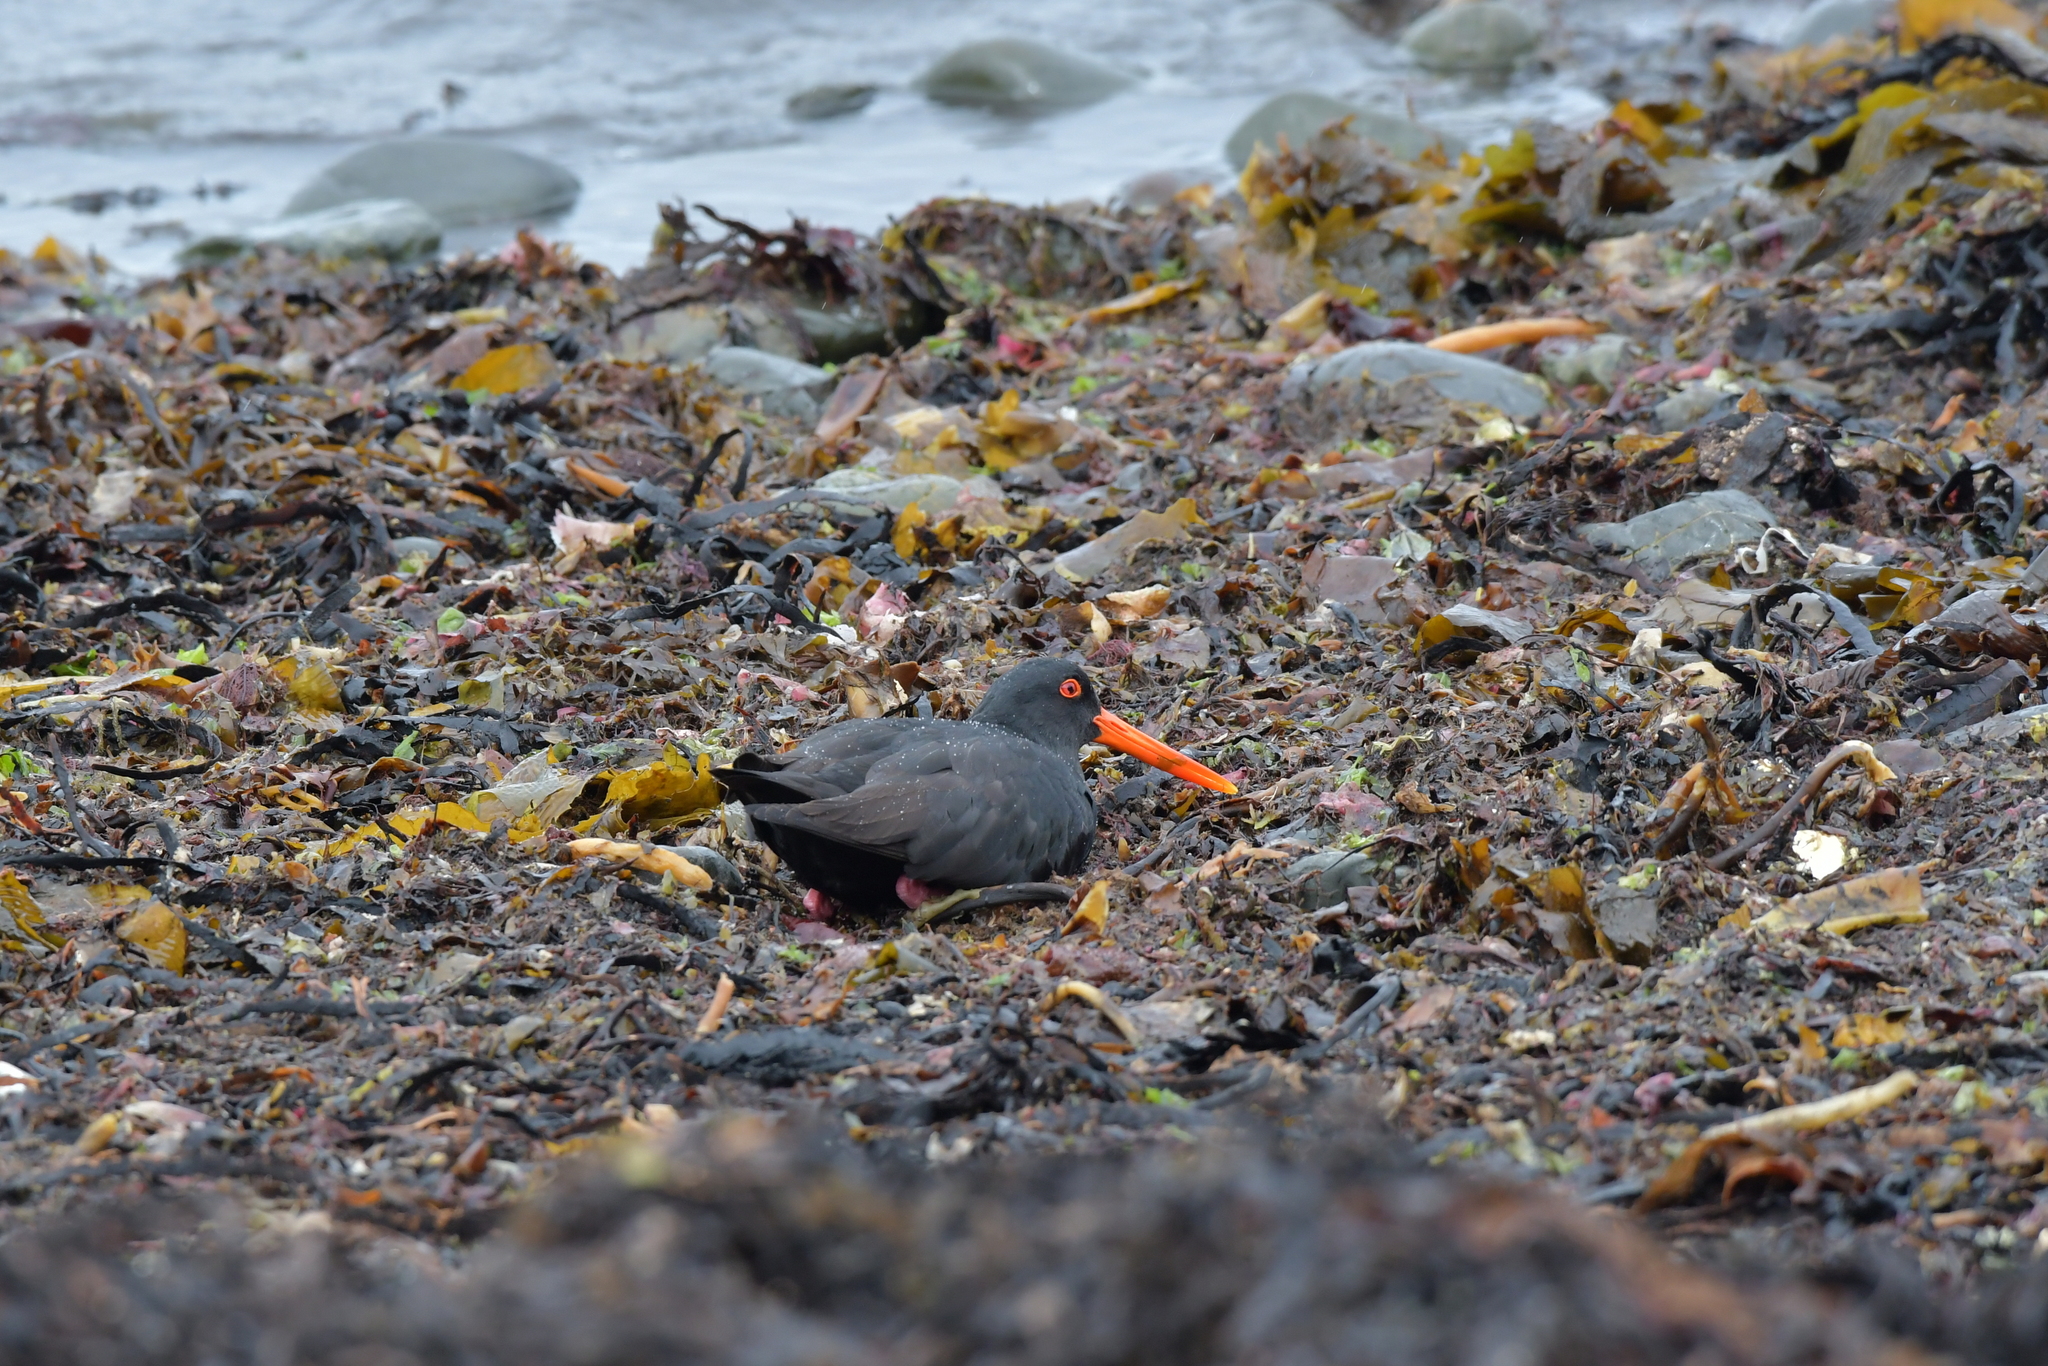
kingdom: Animalia
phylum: Chordata
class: Aves
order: Charadriiformes
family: Haematopodidae
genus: Haematopus
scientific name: Haematopus unicolor
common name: Variable oystercatcher
